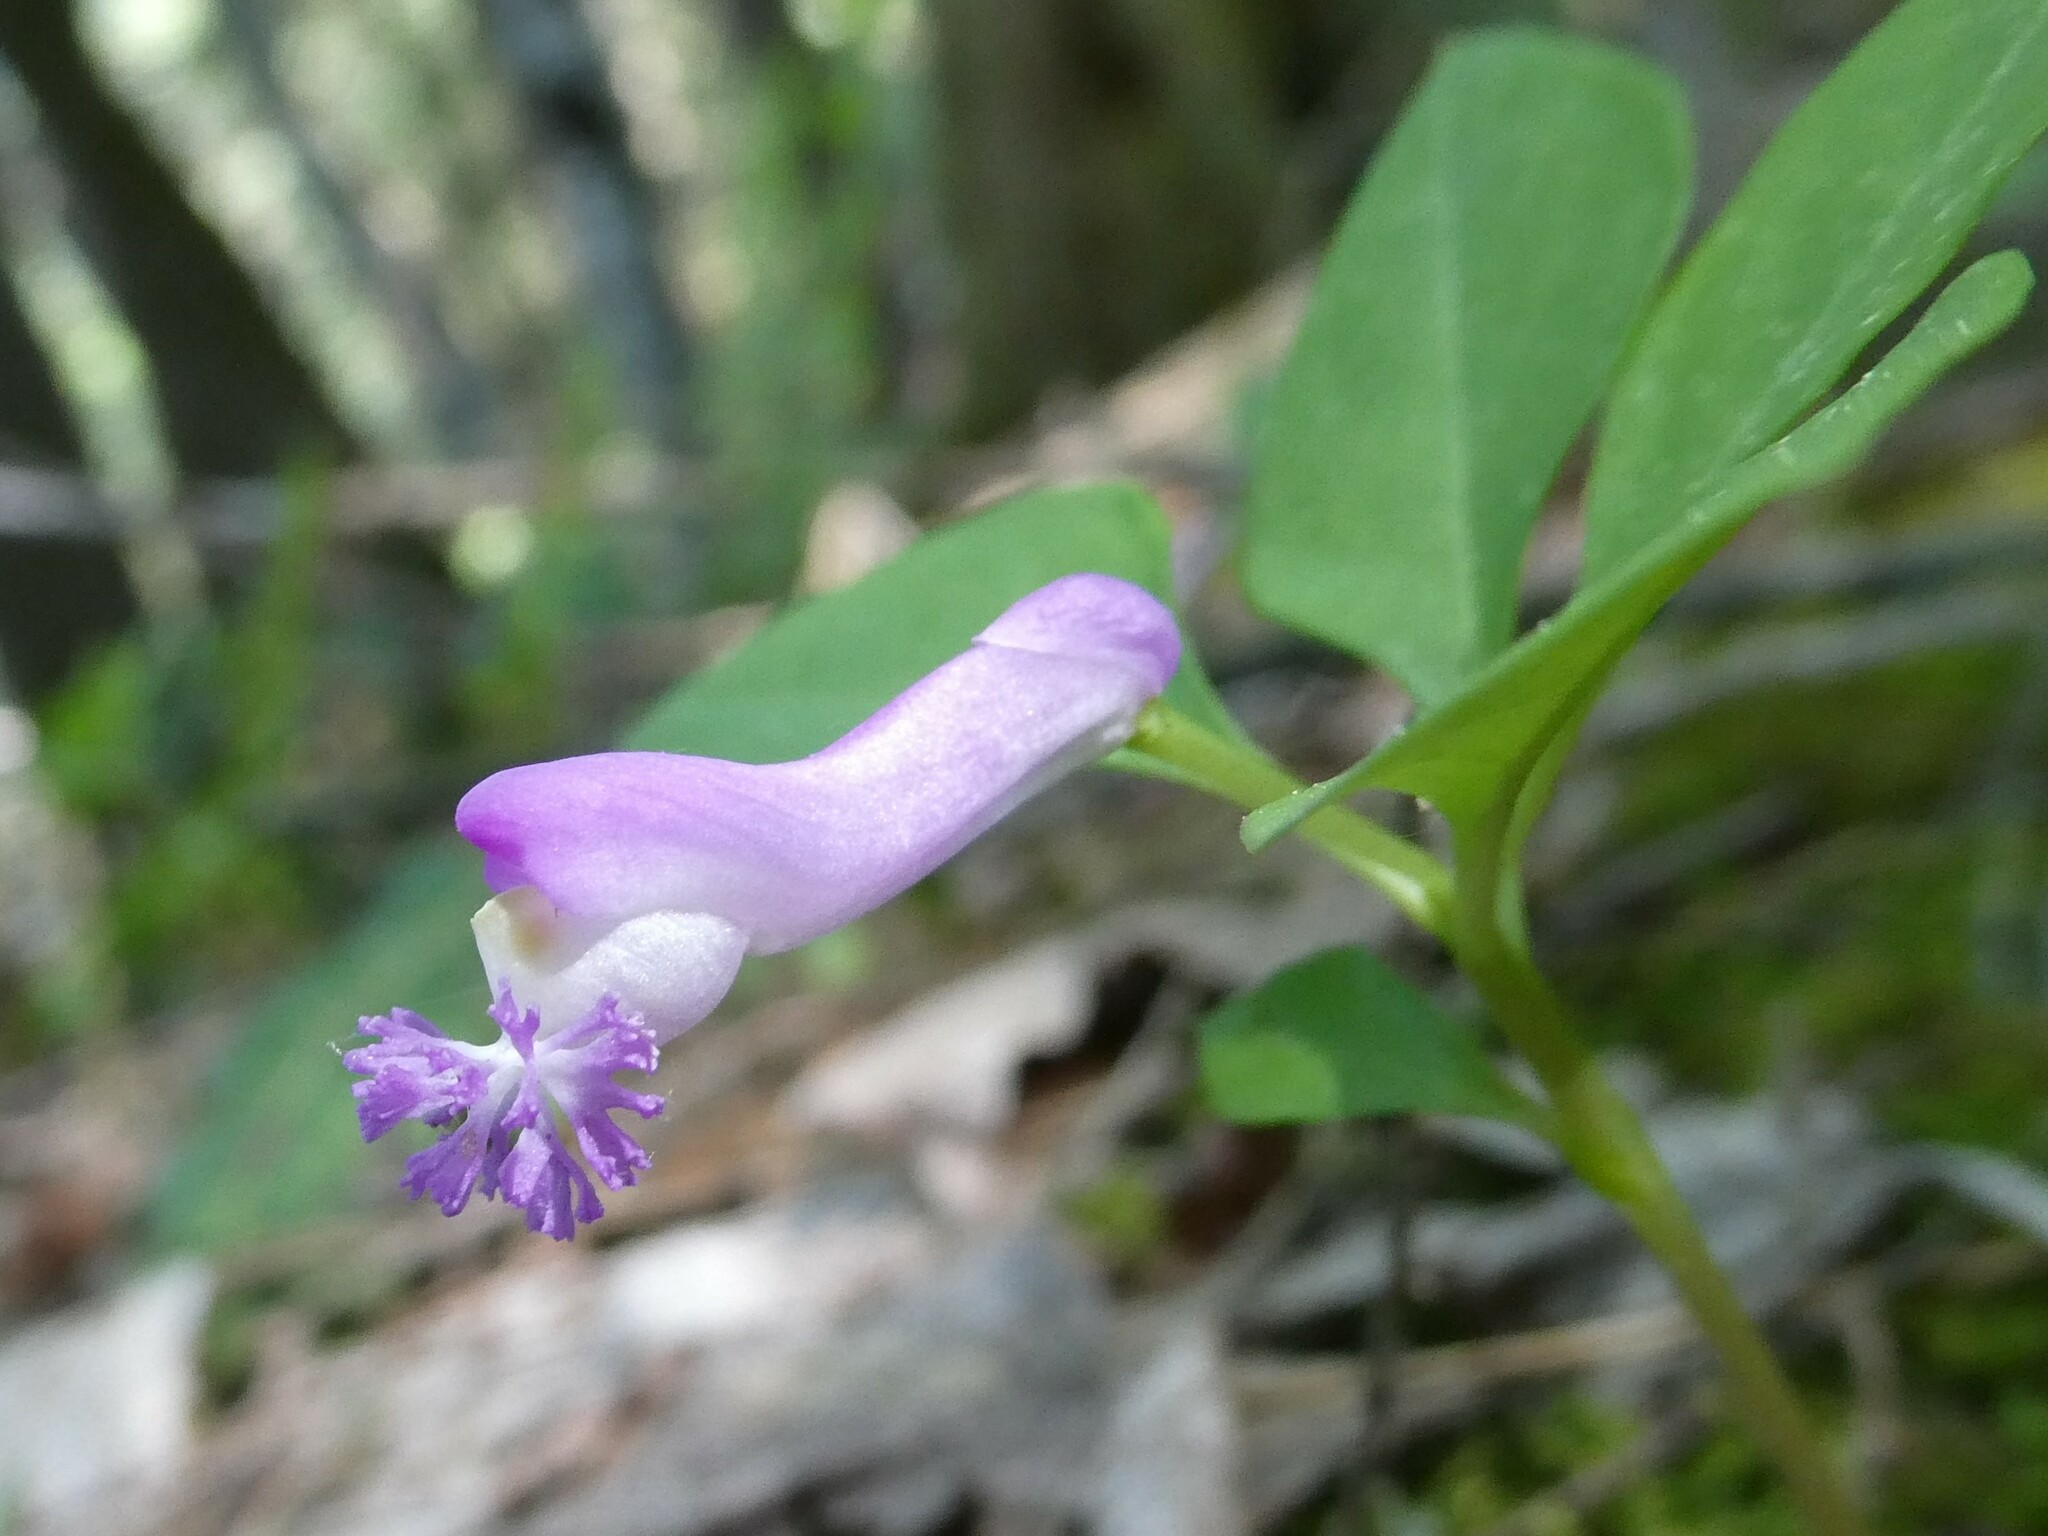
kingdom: Plantae
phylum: Tracheophyta
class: Magnoliopsida
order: Fabales
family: Polygalaceae
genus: Polygaloides
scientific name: Polygaloides paucifolia
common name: Bird-on-the-wing
